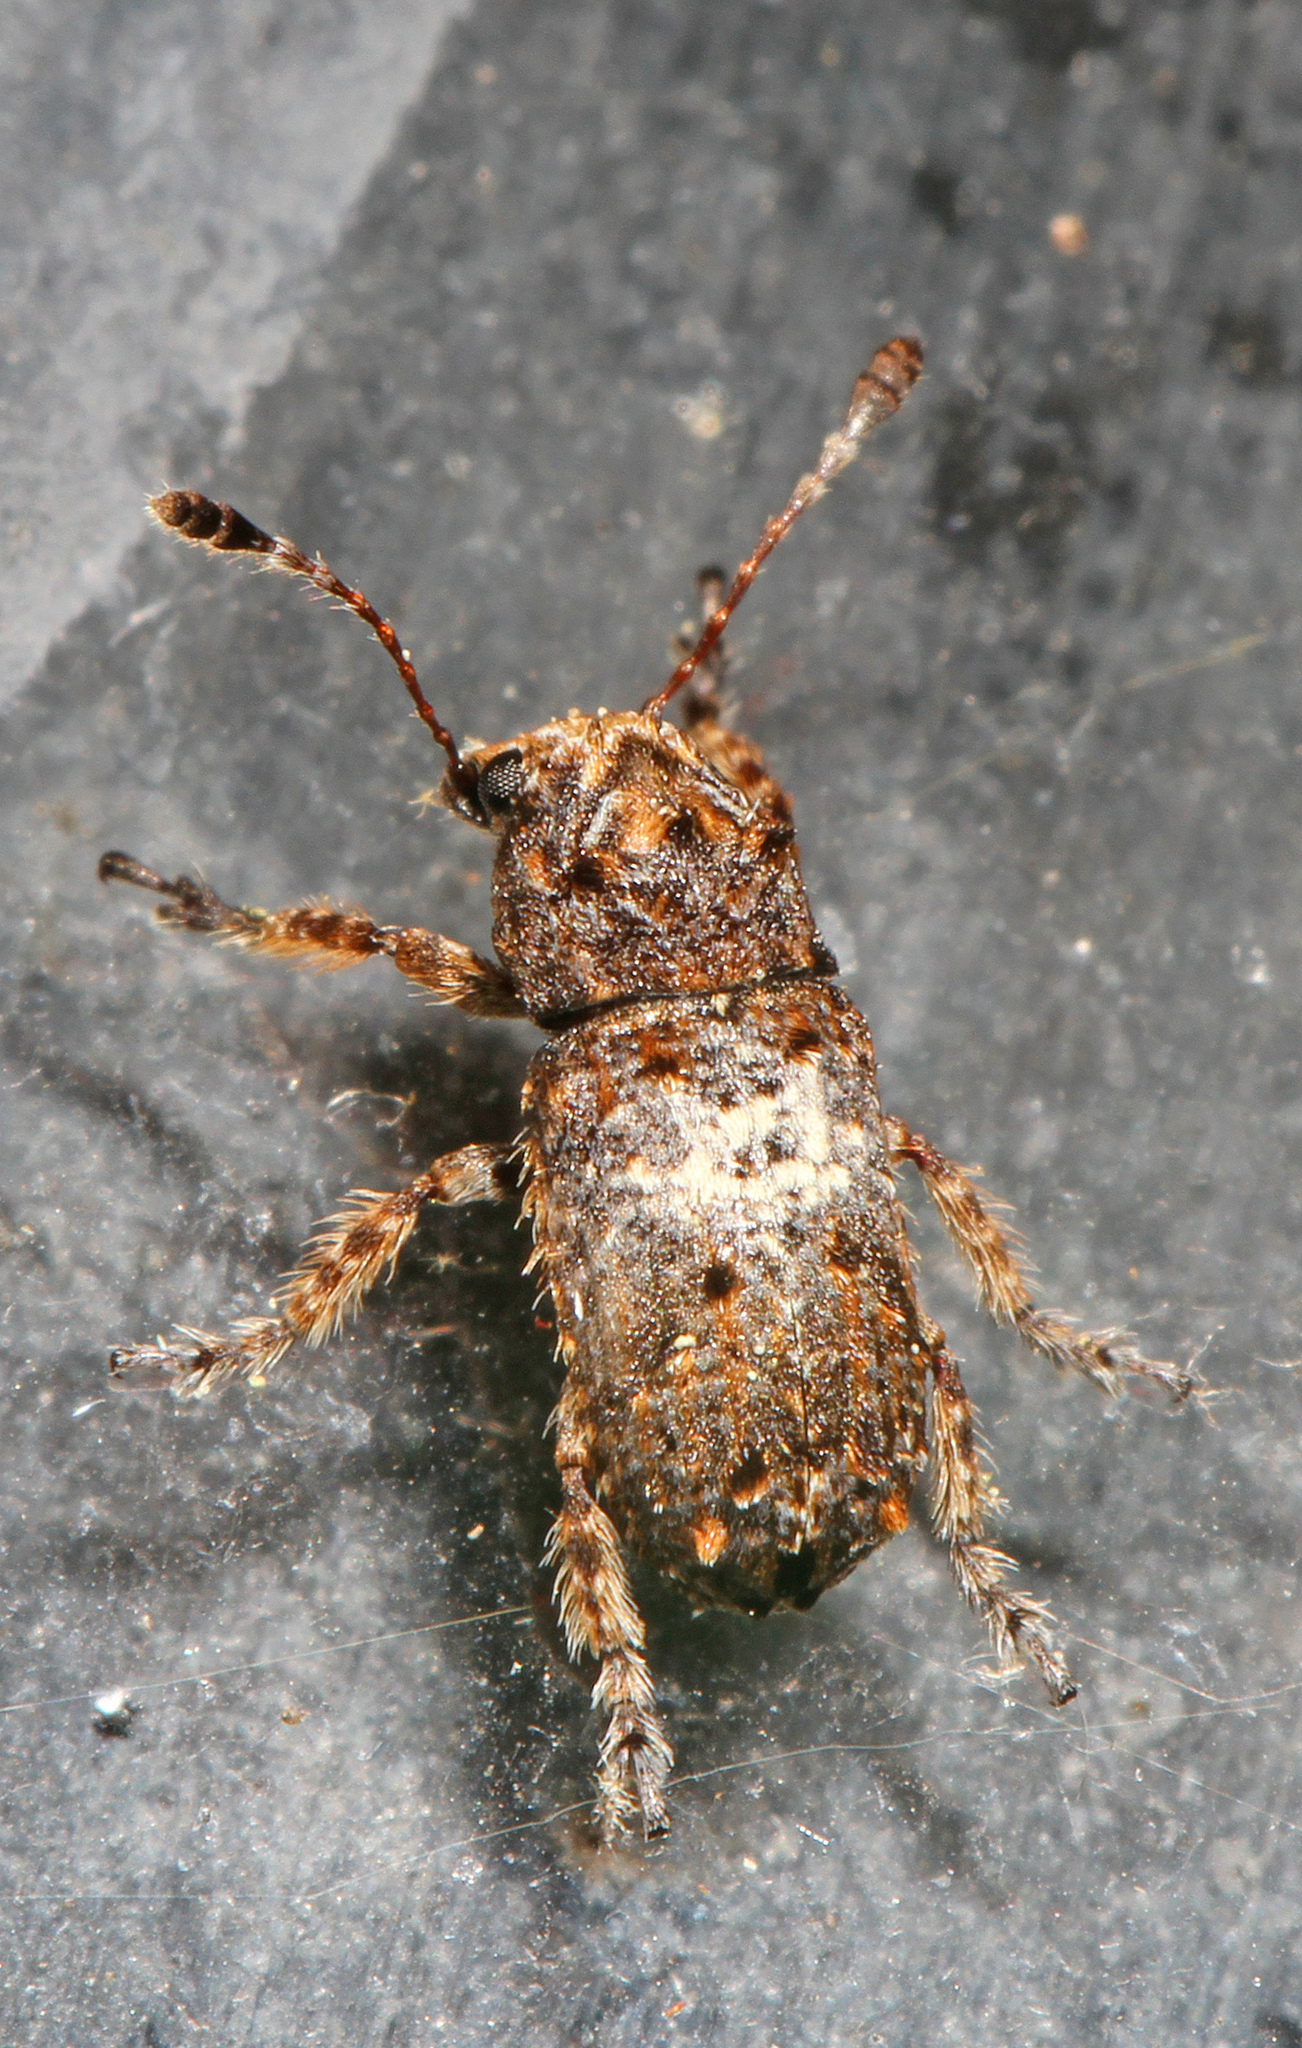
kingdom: Animalia
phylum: Arthropoda
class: Insecta
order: Coleoptera
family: Anthribidae
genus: Toxonotus
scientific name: Toxonotus cornutus
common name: Fungus weevil
